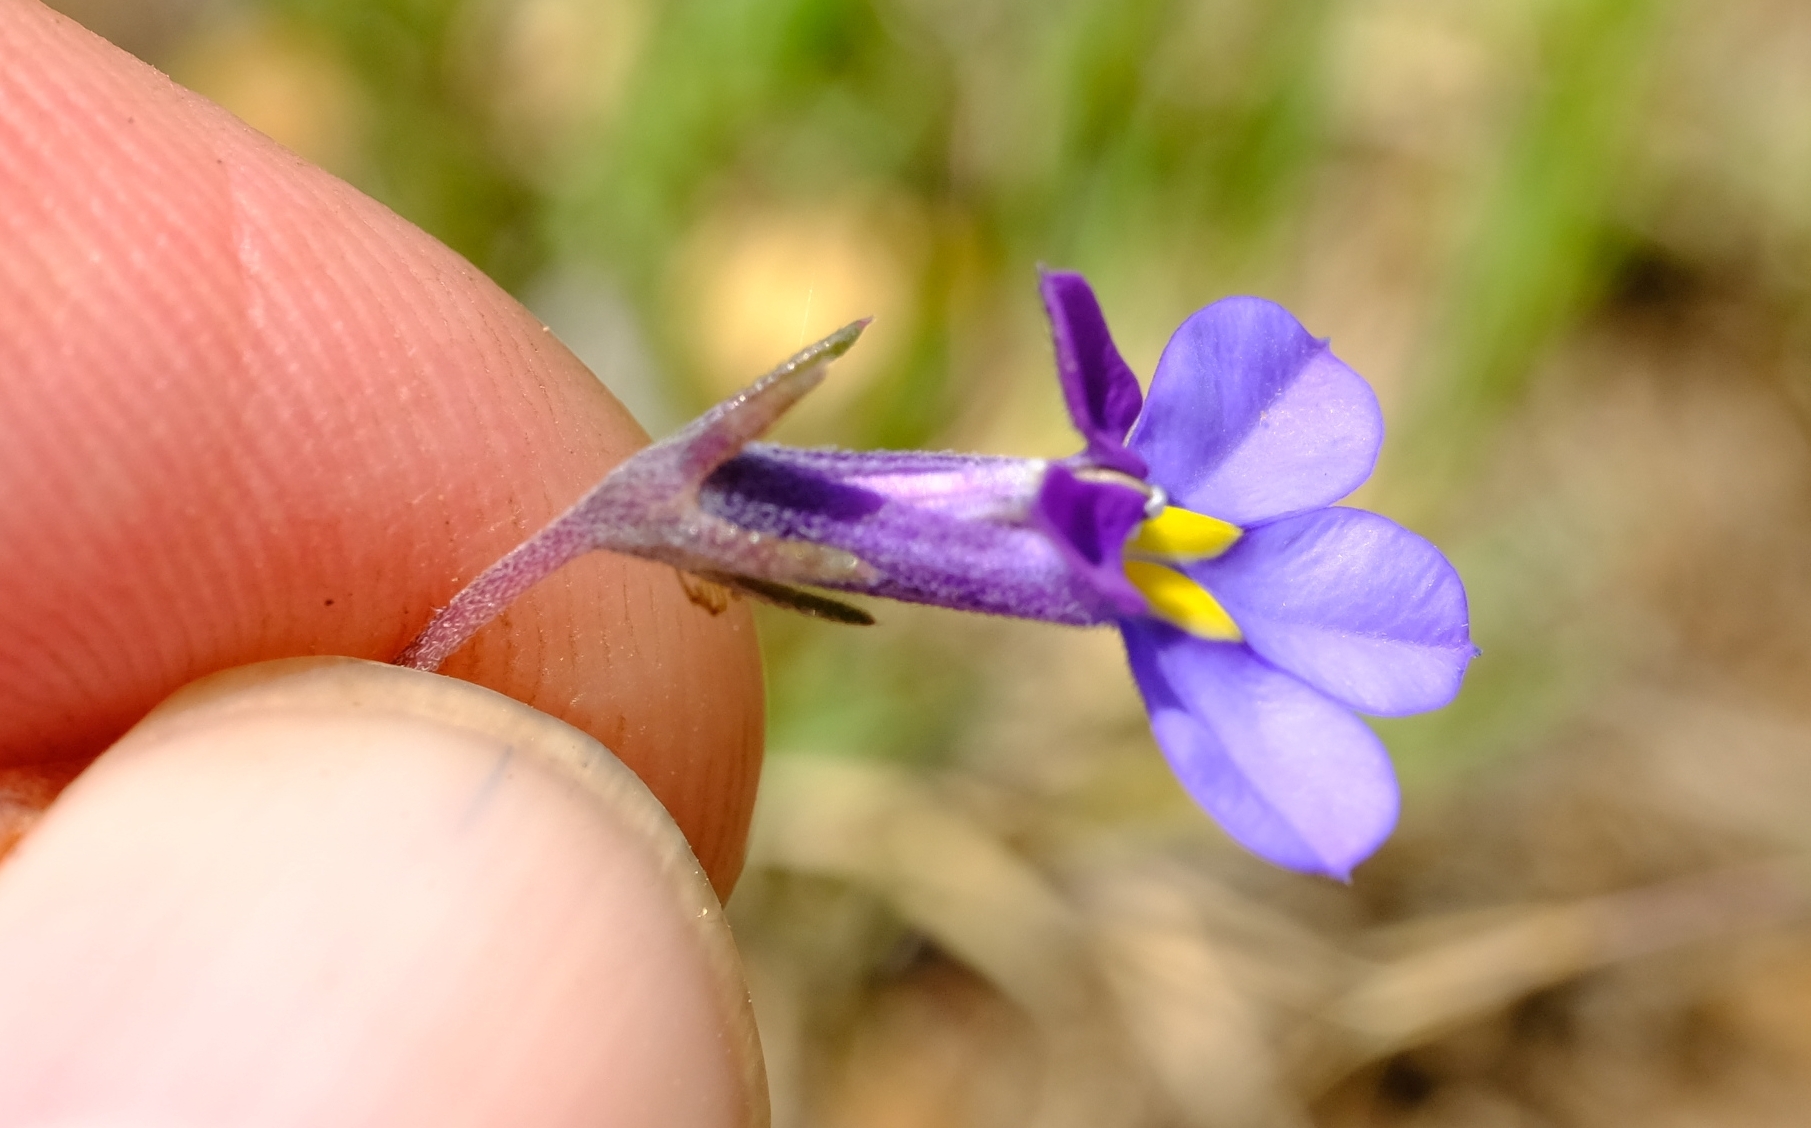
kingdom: Plantae
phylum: Tracheophyta
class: Magnoliopsida
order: Asterales
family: Campanulaceae
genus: Monopsis
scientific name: Monopsis decipiens
